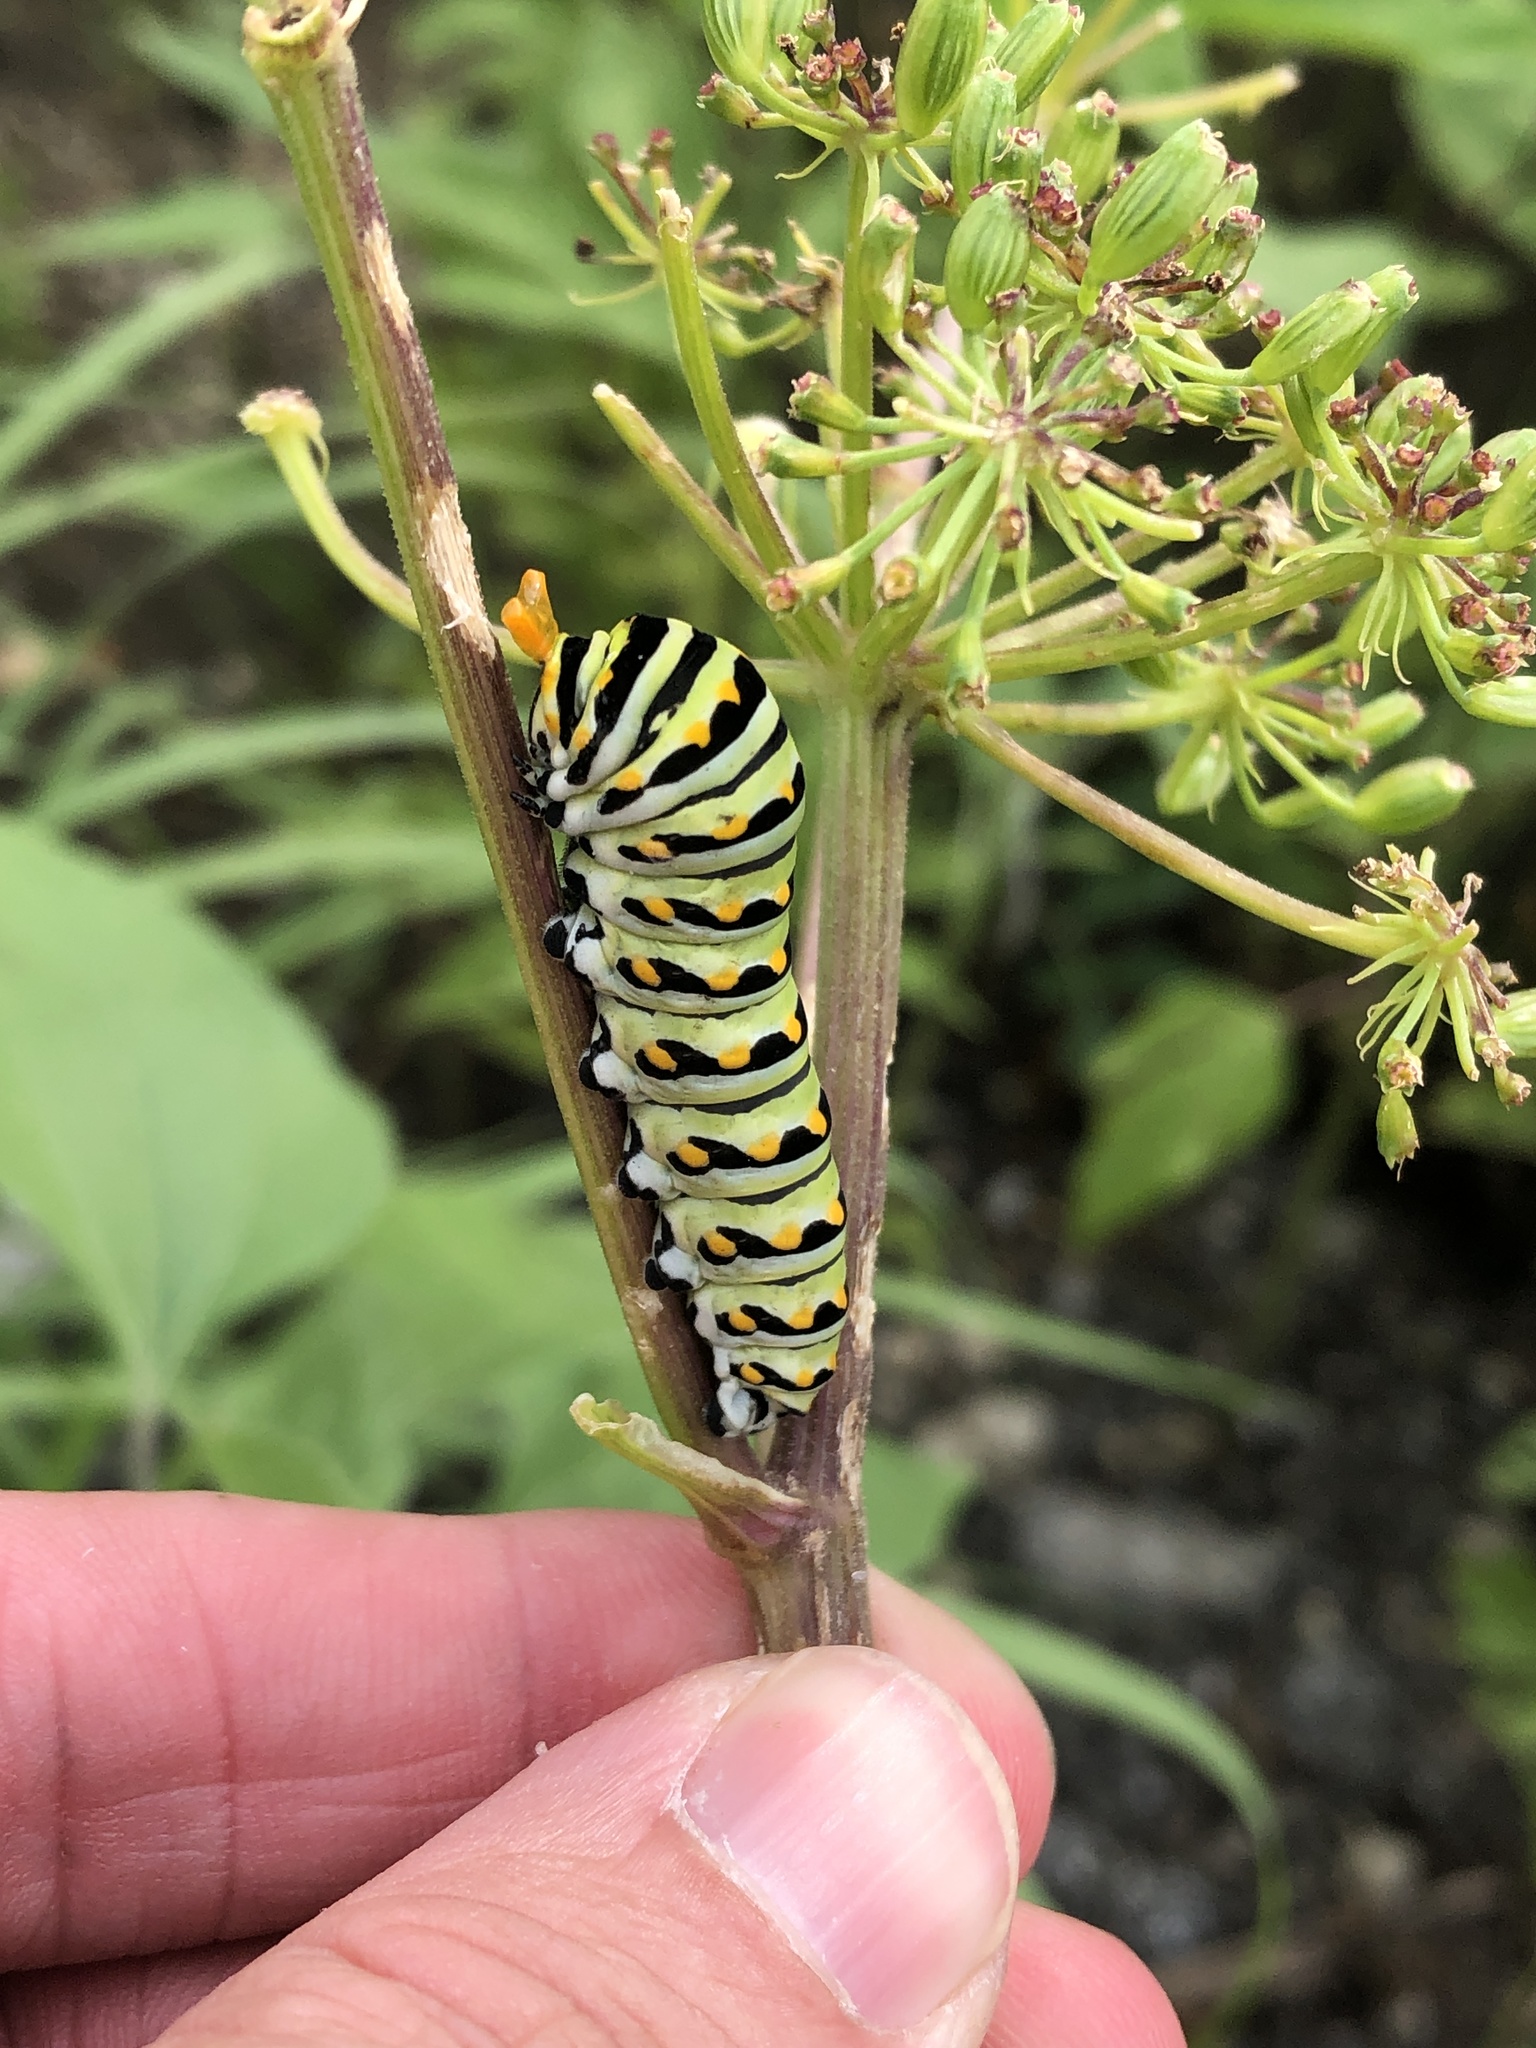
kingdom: Animalia
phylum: Arthropoda
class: Insecta
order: Lepidoptera
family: Papilionidae
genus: Papilio
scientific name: Papilio polyxenes
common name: Black swallowtail
